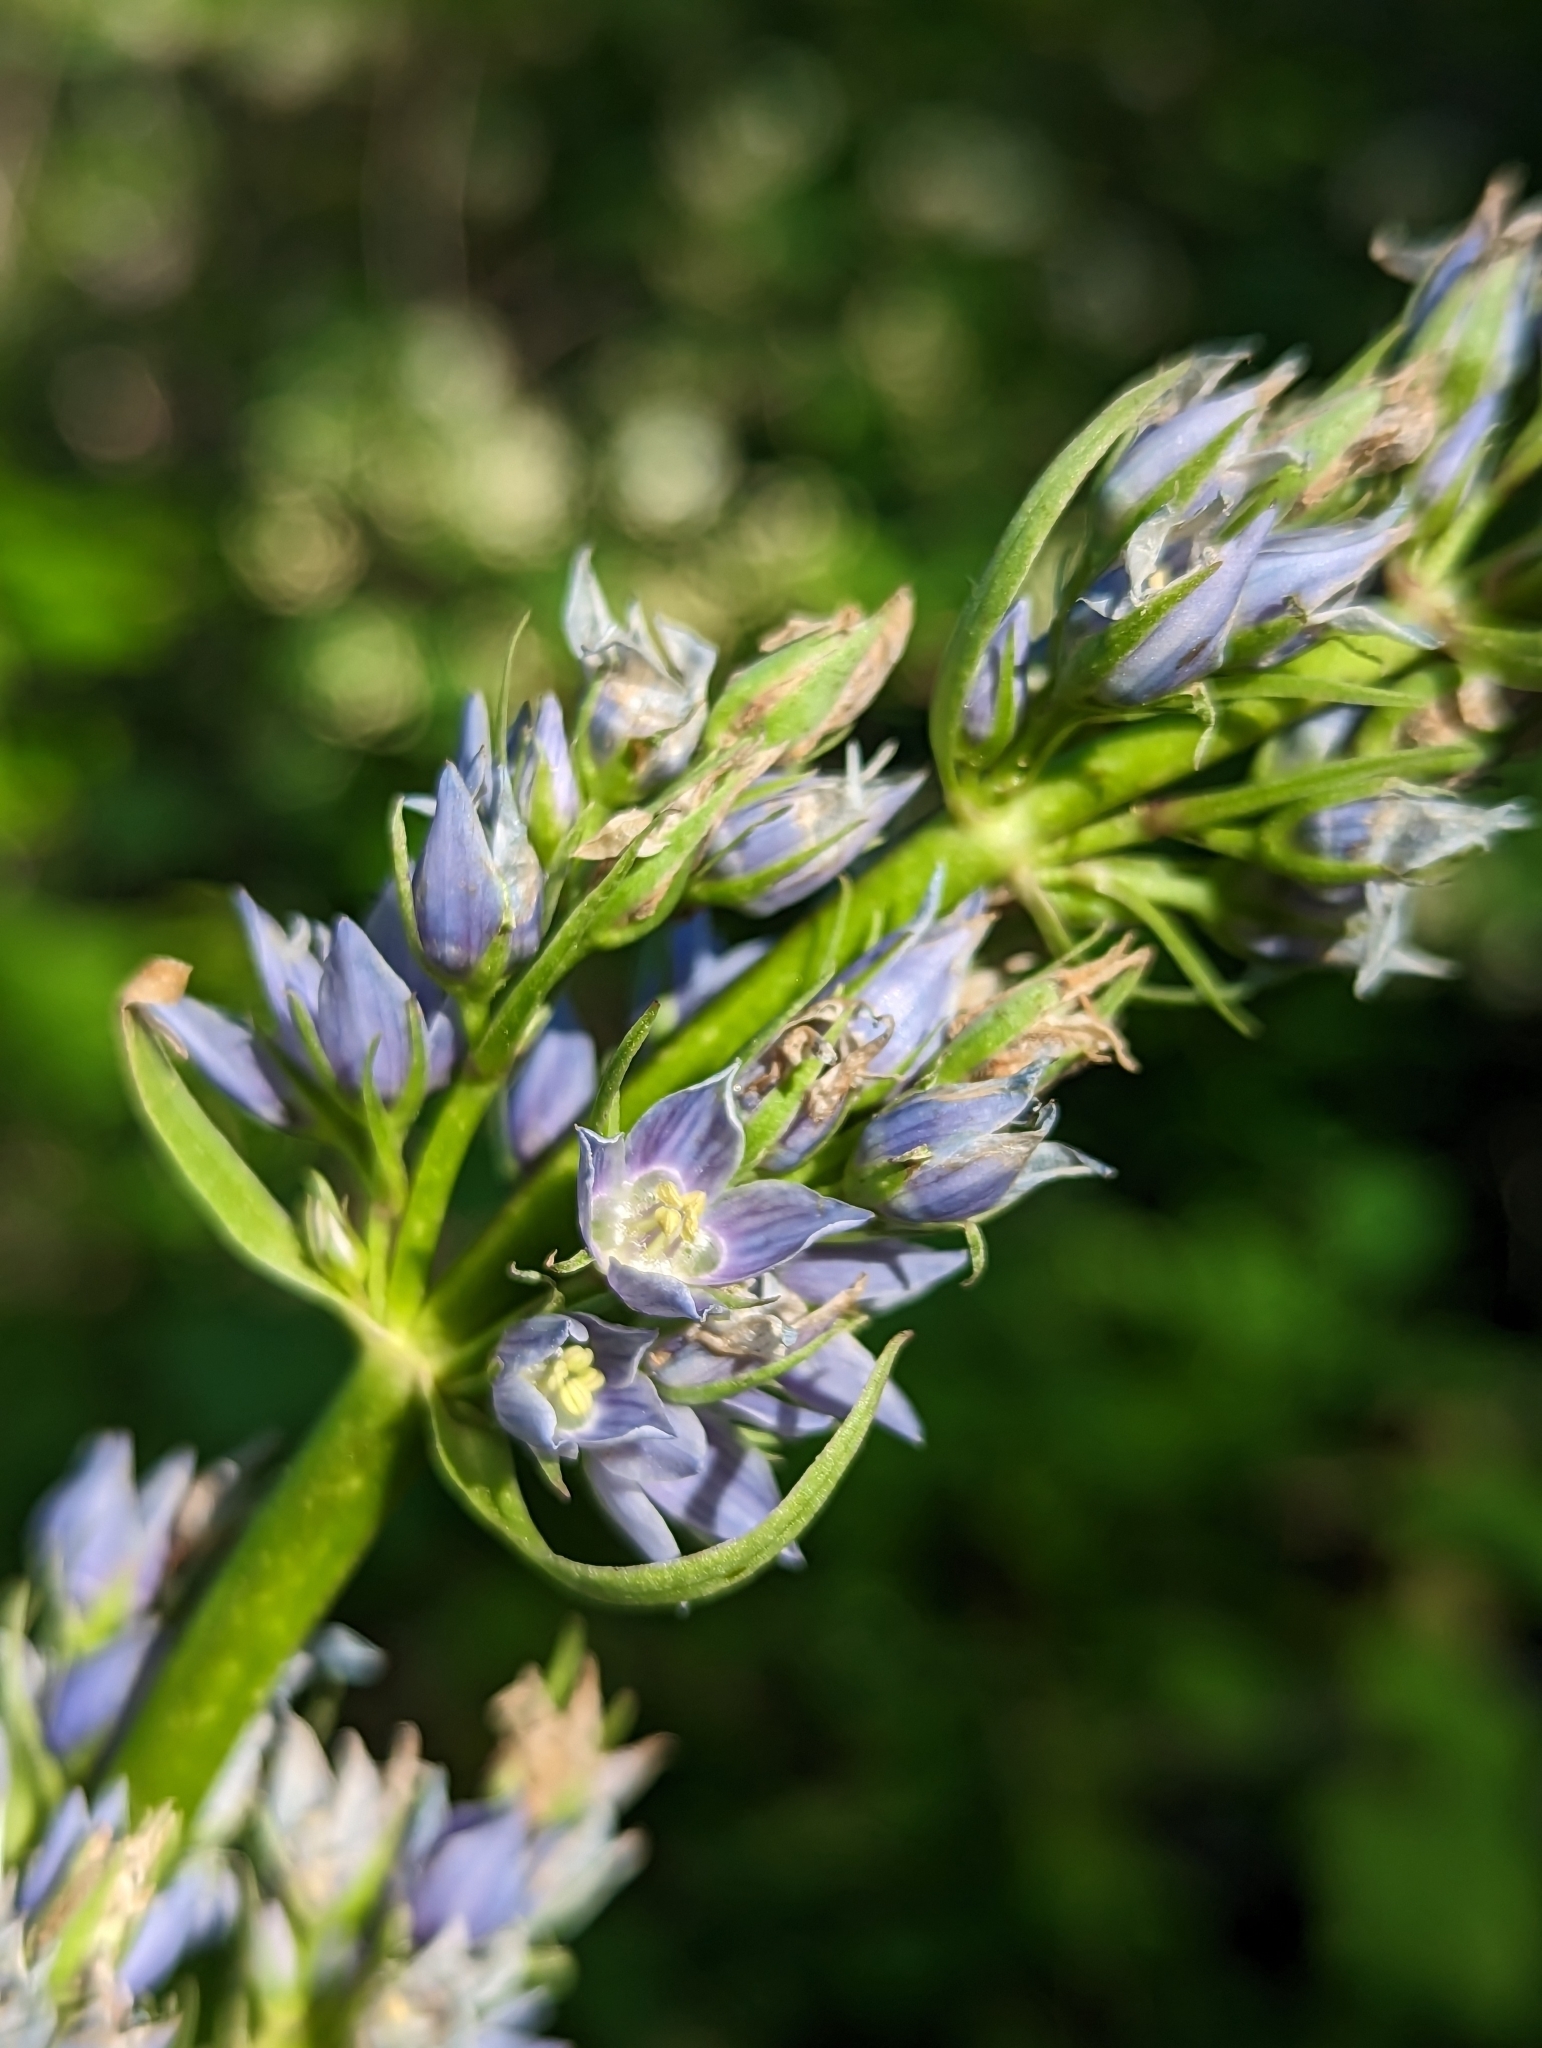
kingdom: Plantae
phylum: Tracheophyta
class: Magnoliopsida
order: Gentianales
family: Gentianaceae
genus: Frasera
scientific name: Frasera fastigiata
